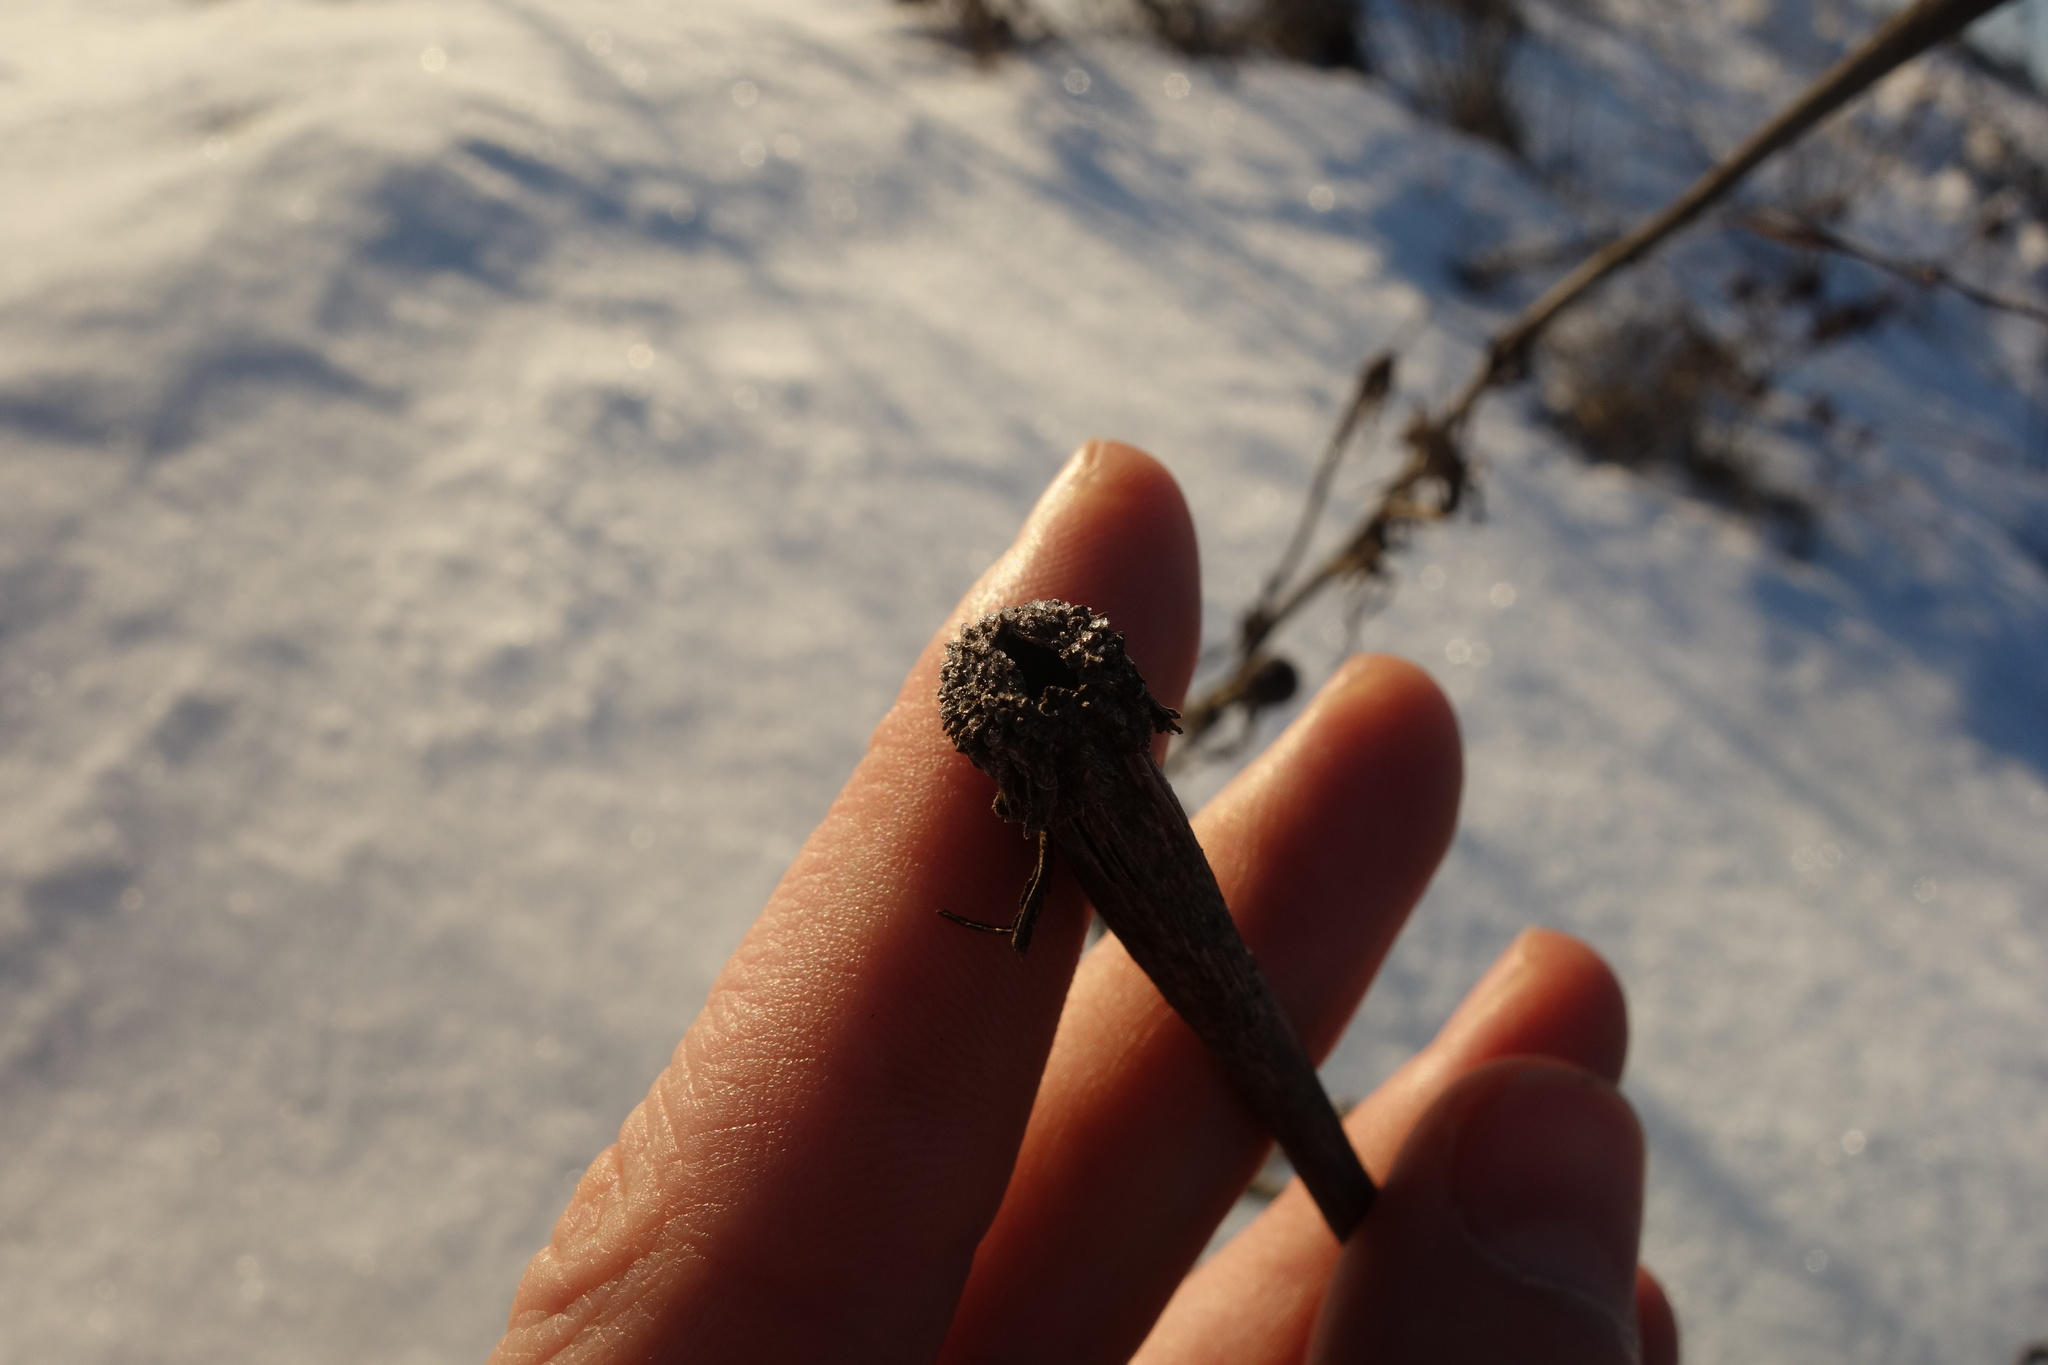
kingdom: Plantae
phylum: Tracheophyta
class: Magnoliopsida
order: Asterales
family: Asteraceae
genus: Tragopogon
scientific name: Tragopogon dubius
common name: Yellow salsify
